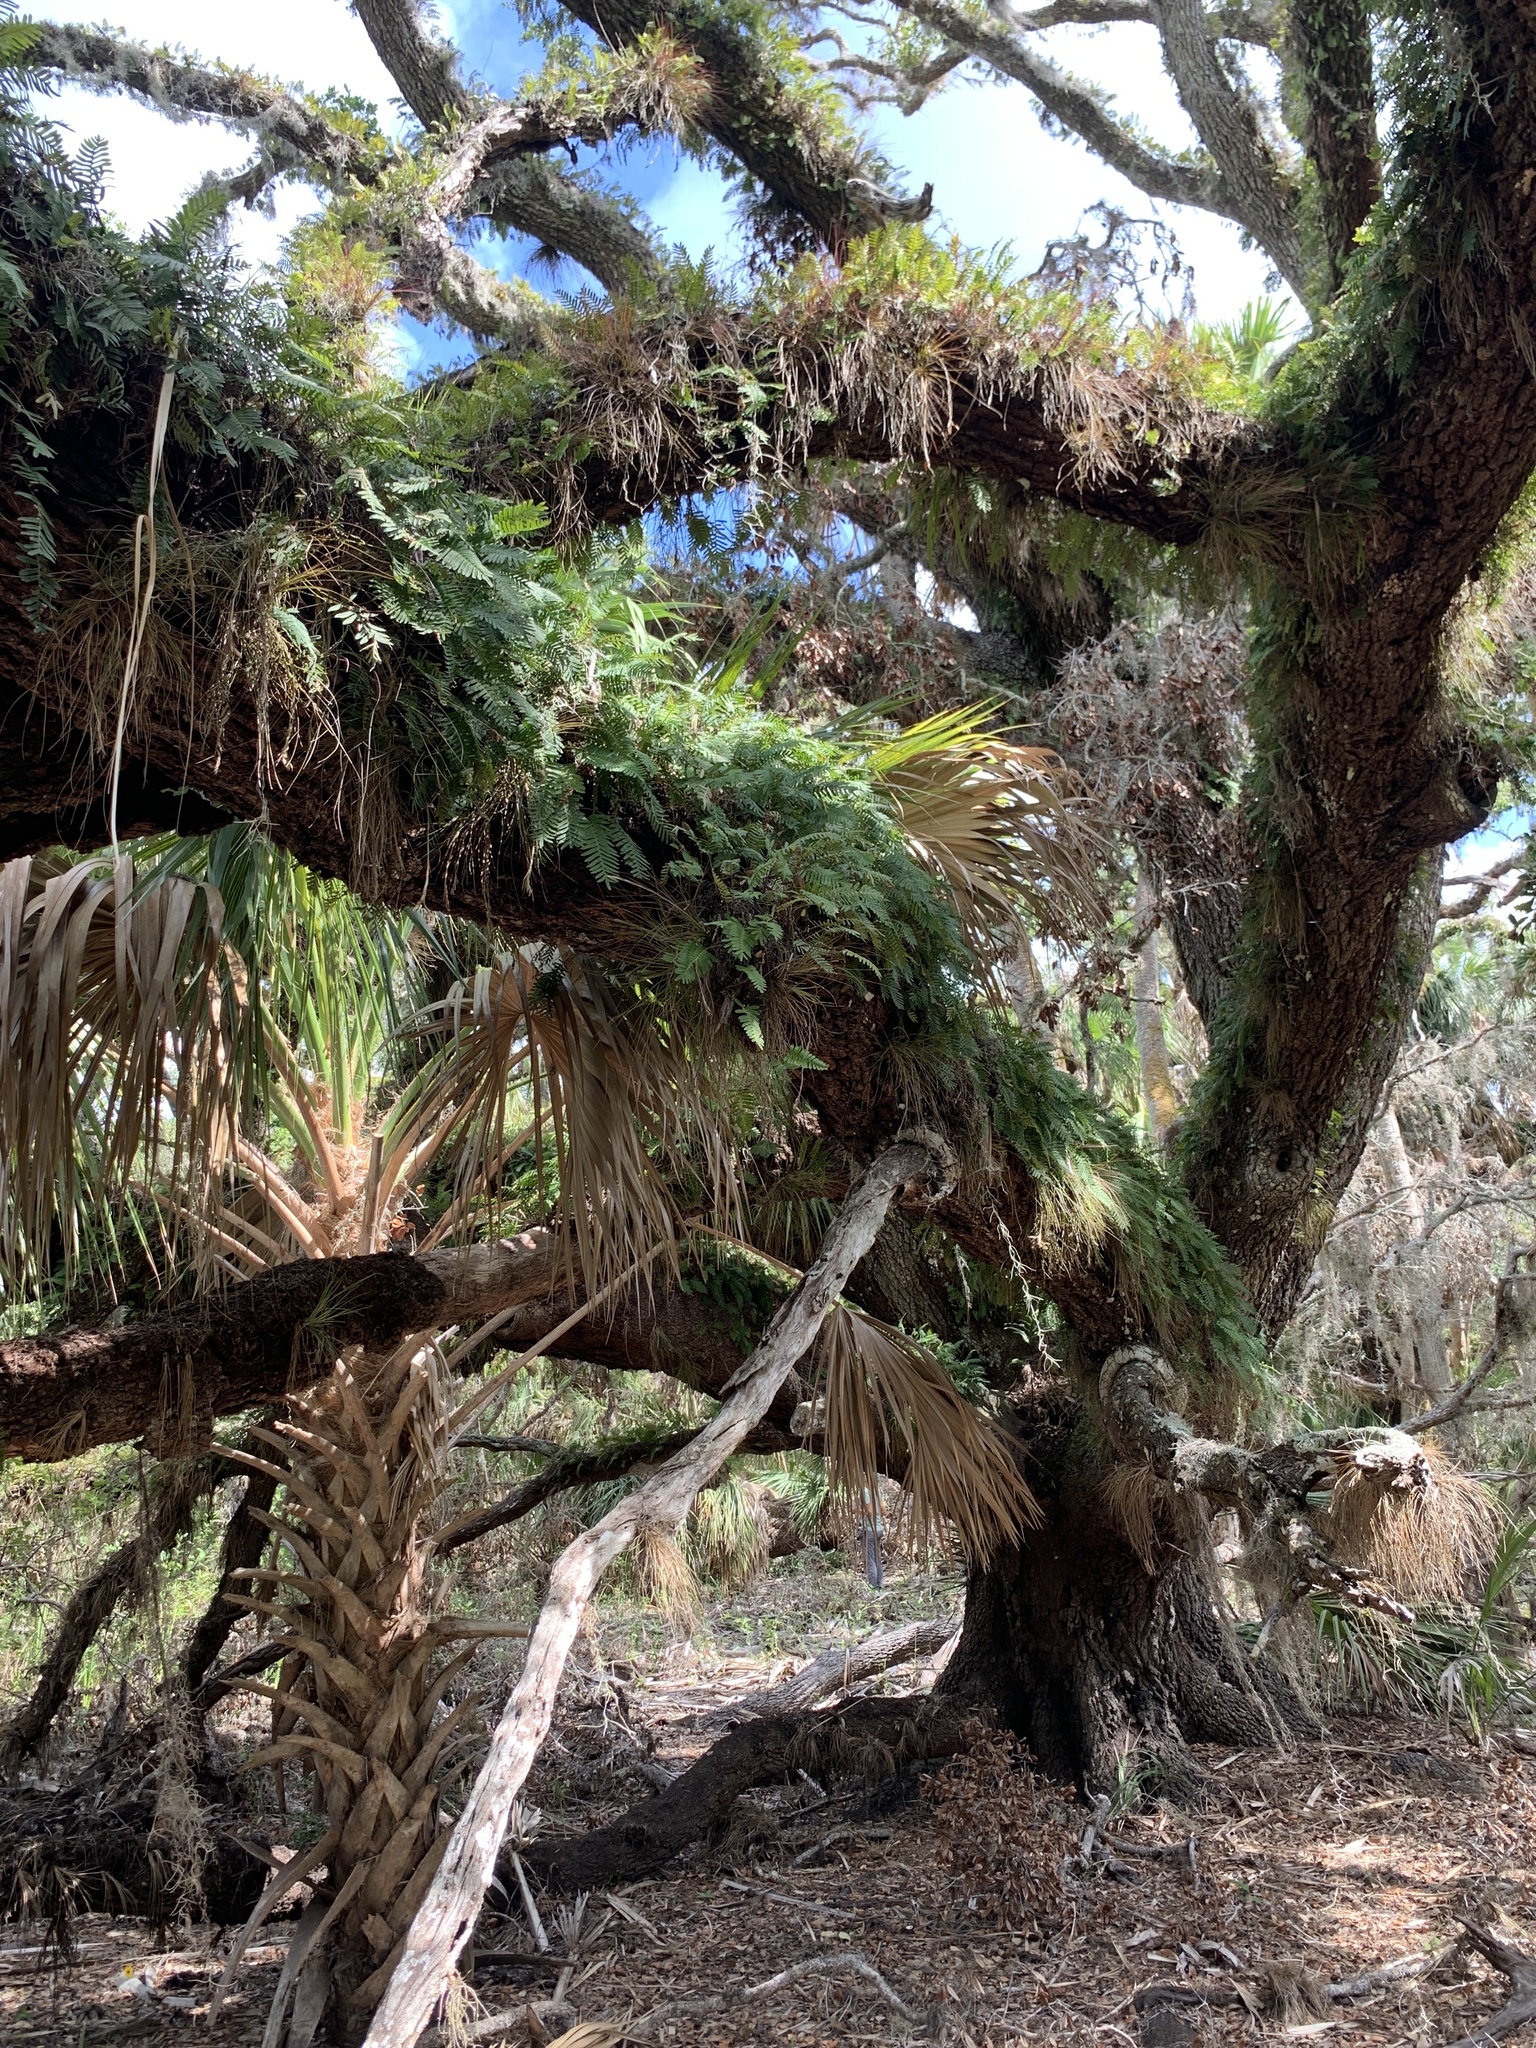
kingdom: Plantae
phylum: Tracheophyta
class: Polypodiopsida
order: Polypodiales
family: Polypodiaceae
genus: Pleopeltis
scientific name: Pleopeltis michauxiana
